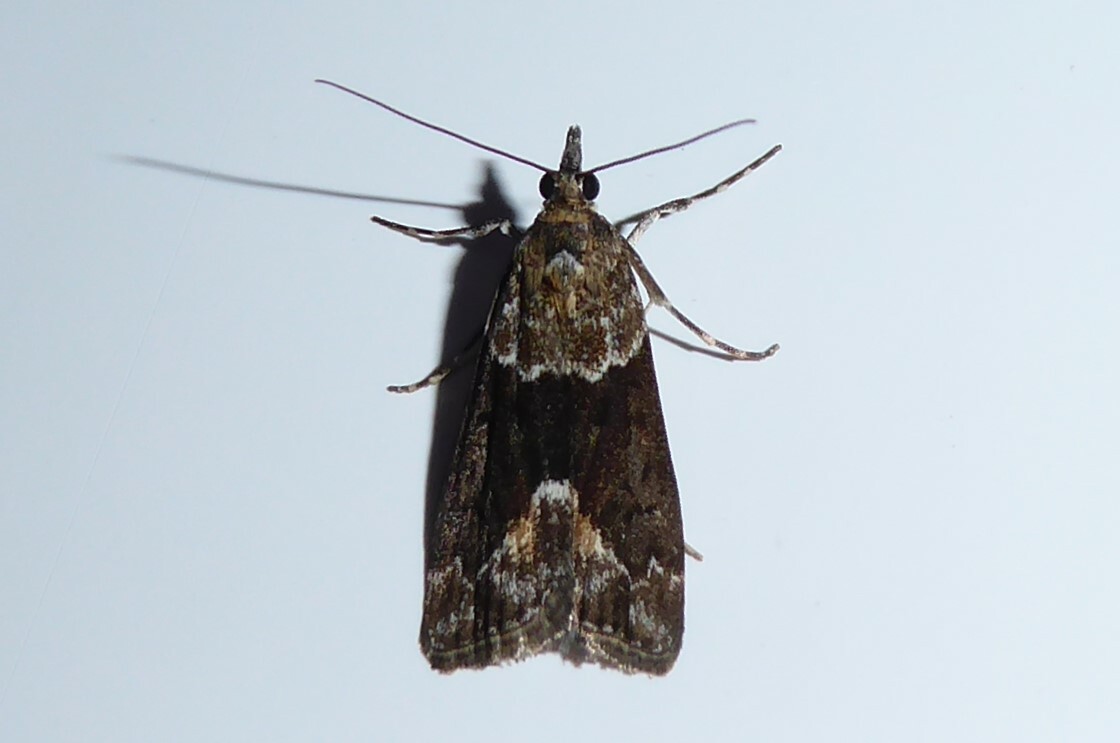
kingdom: Animalia
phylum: Arthropoda
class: Insecta
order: Lepidoptera
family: Crambidae
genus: Eudonia
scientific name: Eudonia submarginalis
